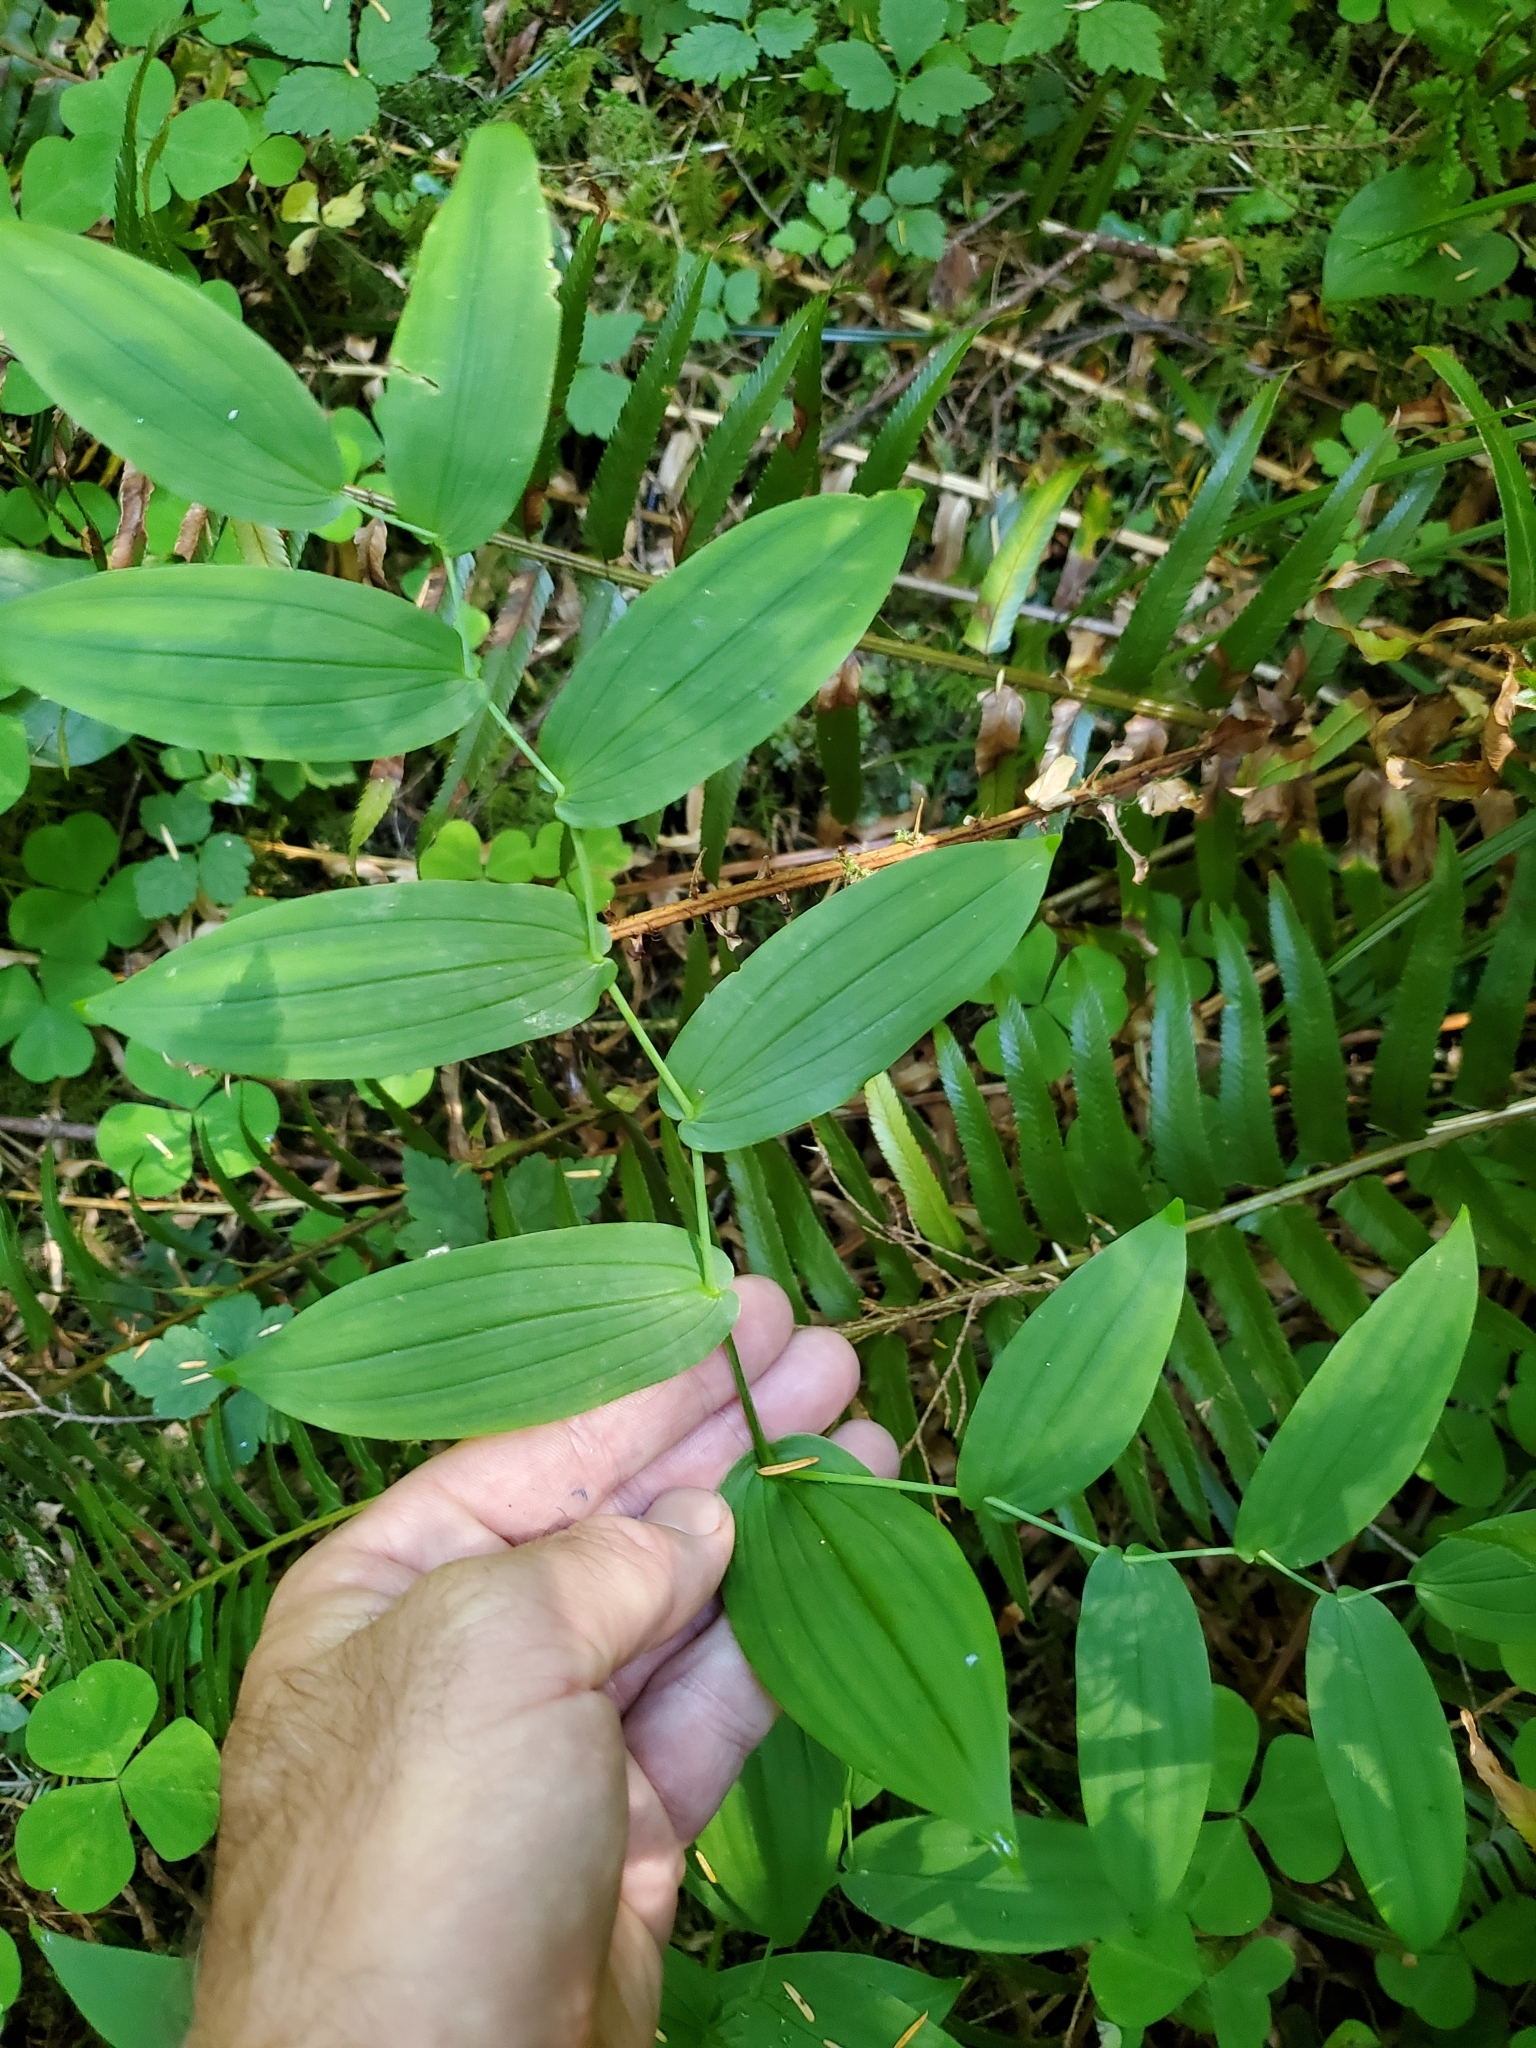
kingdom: Plantae
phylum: Tracheophyta
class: Liliopsida
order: Liliales
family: Liliaceae
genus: Streptopus
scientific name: Streptopus amplexifolius
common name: Clasp twisted stalk
